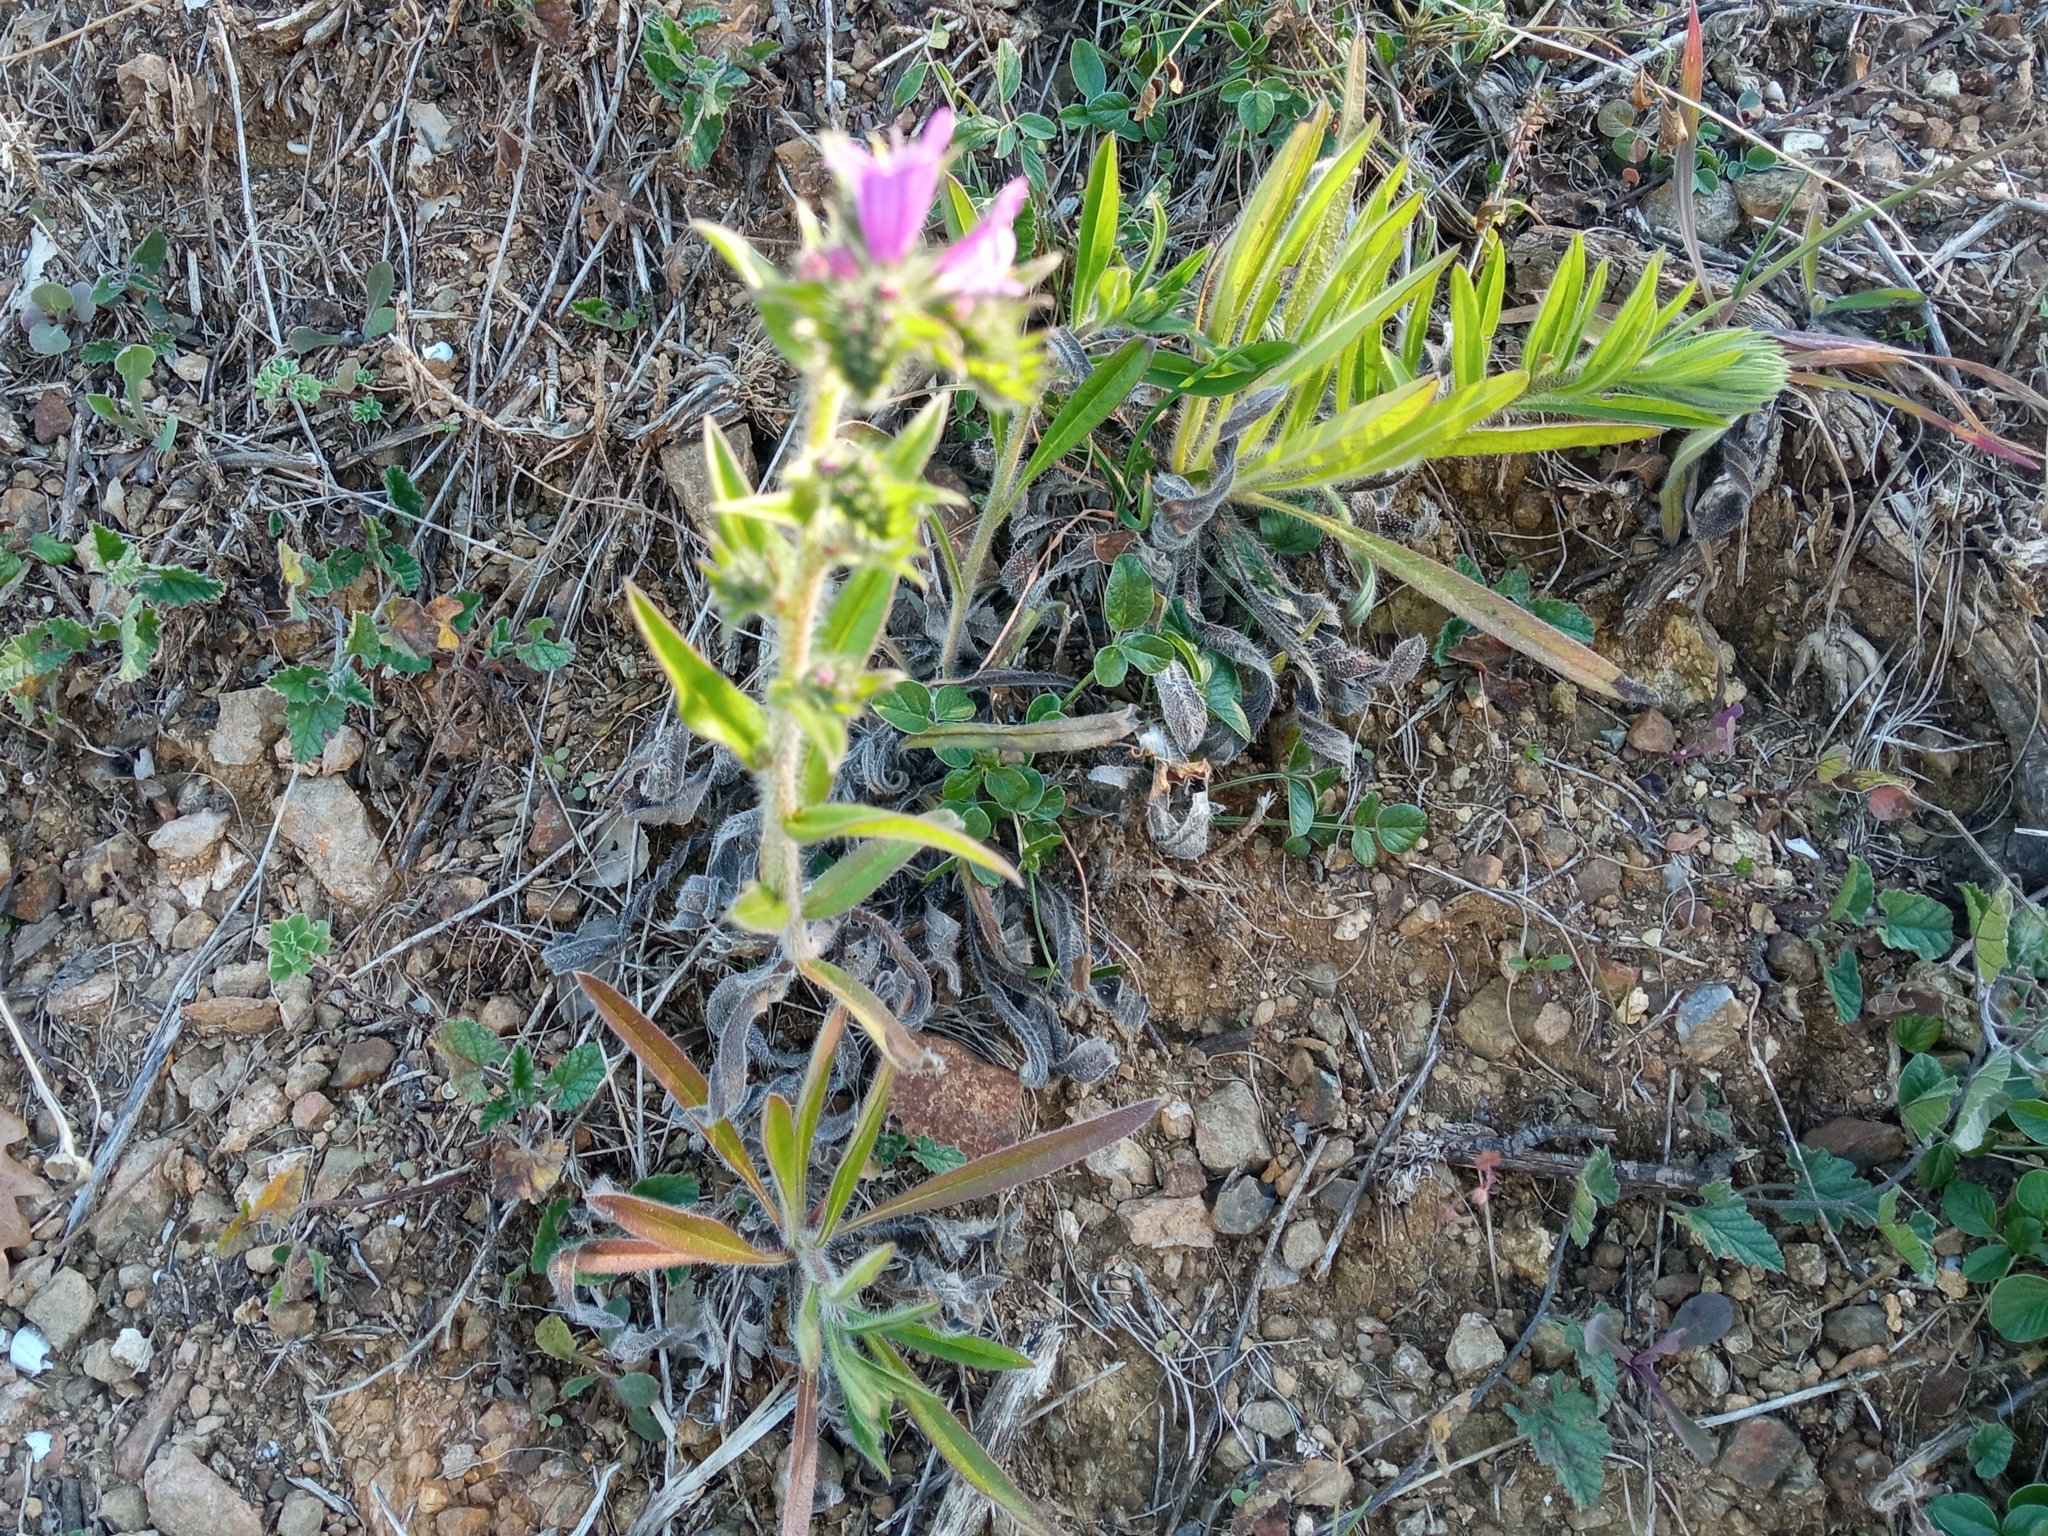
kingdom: Plantae
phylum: Tracheophyta
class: Magnoliopsida
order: Boraginales
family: Boraginaceae
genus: Echium
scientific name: Echium vulgare
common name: Common viper's bugloss
